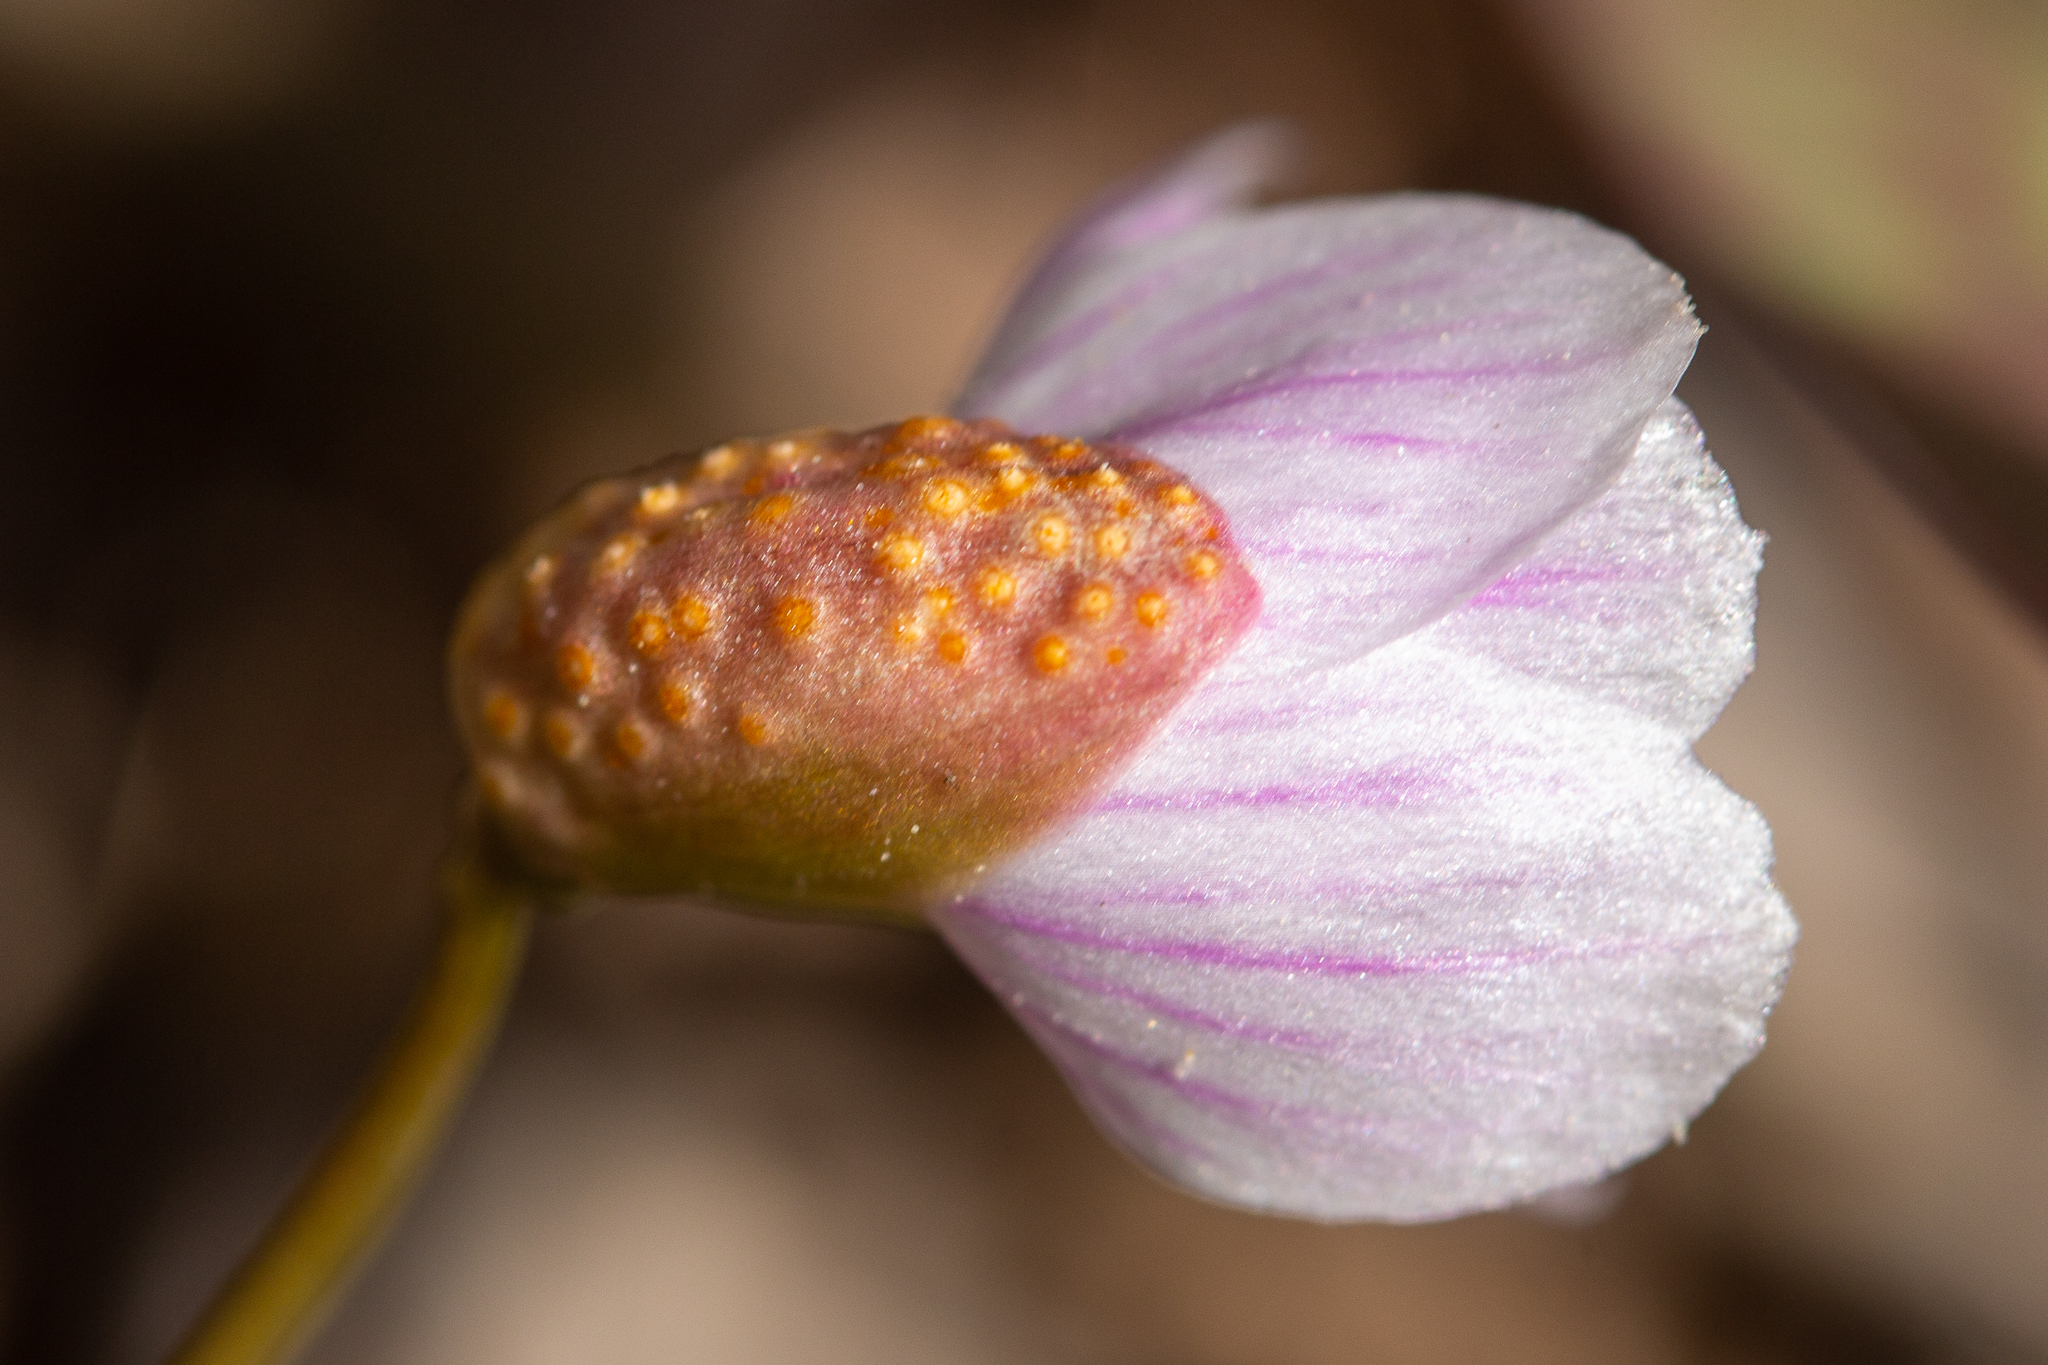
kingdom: Fungi
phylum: Basidiomycota
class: Pucciniomycetes
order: Pucciniales
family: Pucciniaceae
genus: Puccinia
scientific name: Puccinia mariae-wilsoniae
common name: Spring beauty rust
